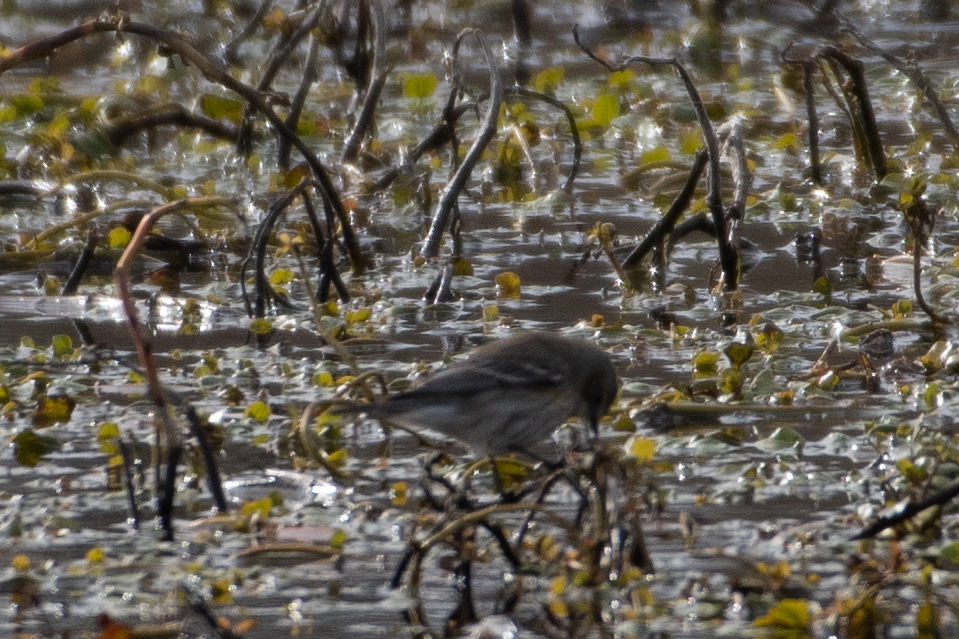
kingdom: Animalia
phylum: Chordata
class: Aves
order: Passeriformes
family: Parulidae
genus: Setophaga
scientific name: Setophaga coronata
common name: Myrtle warbler
